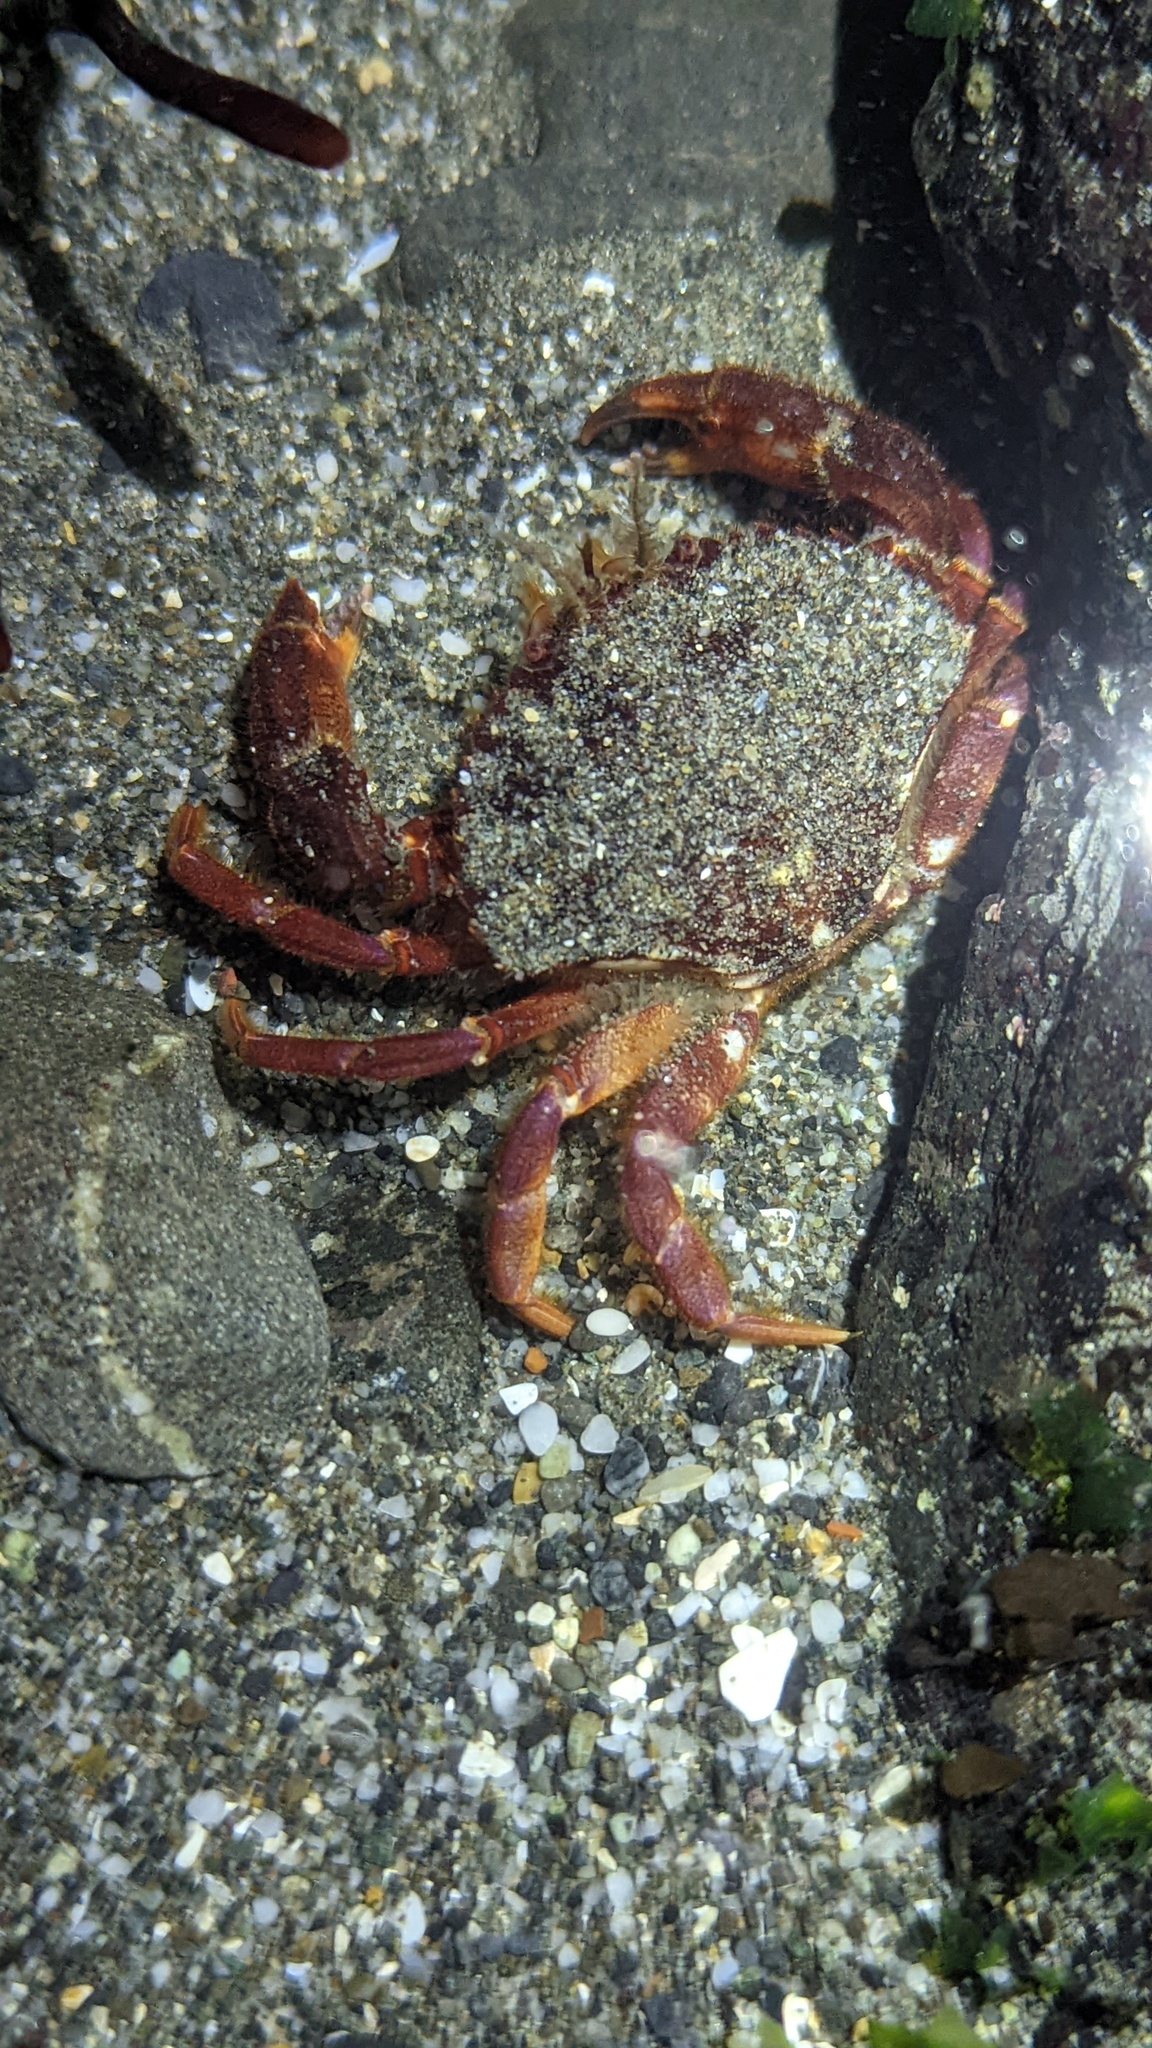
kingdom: Animalia
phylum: Arthropoda
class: Malacostraca
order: Decapoda
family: Cancridae
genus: Romaleon
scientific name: Romaleon antennarium
